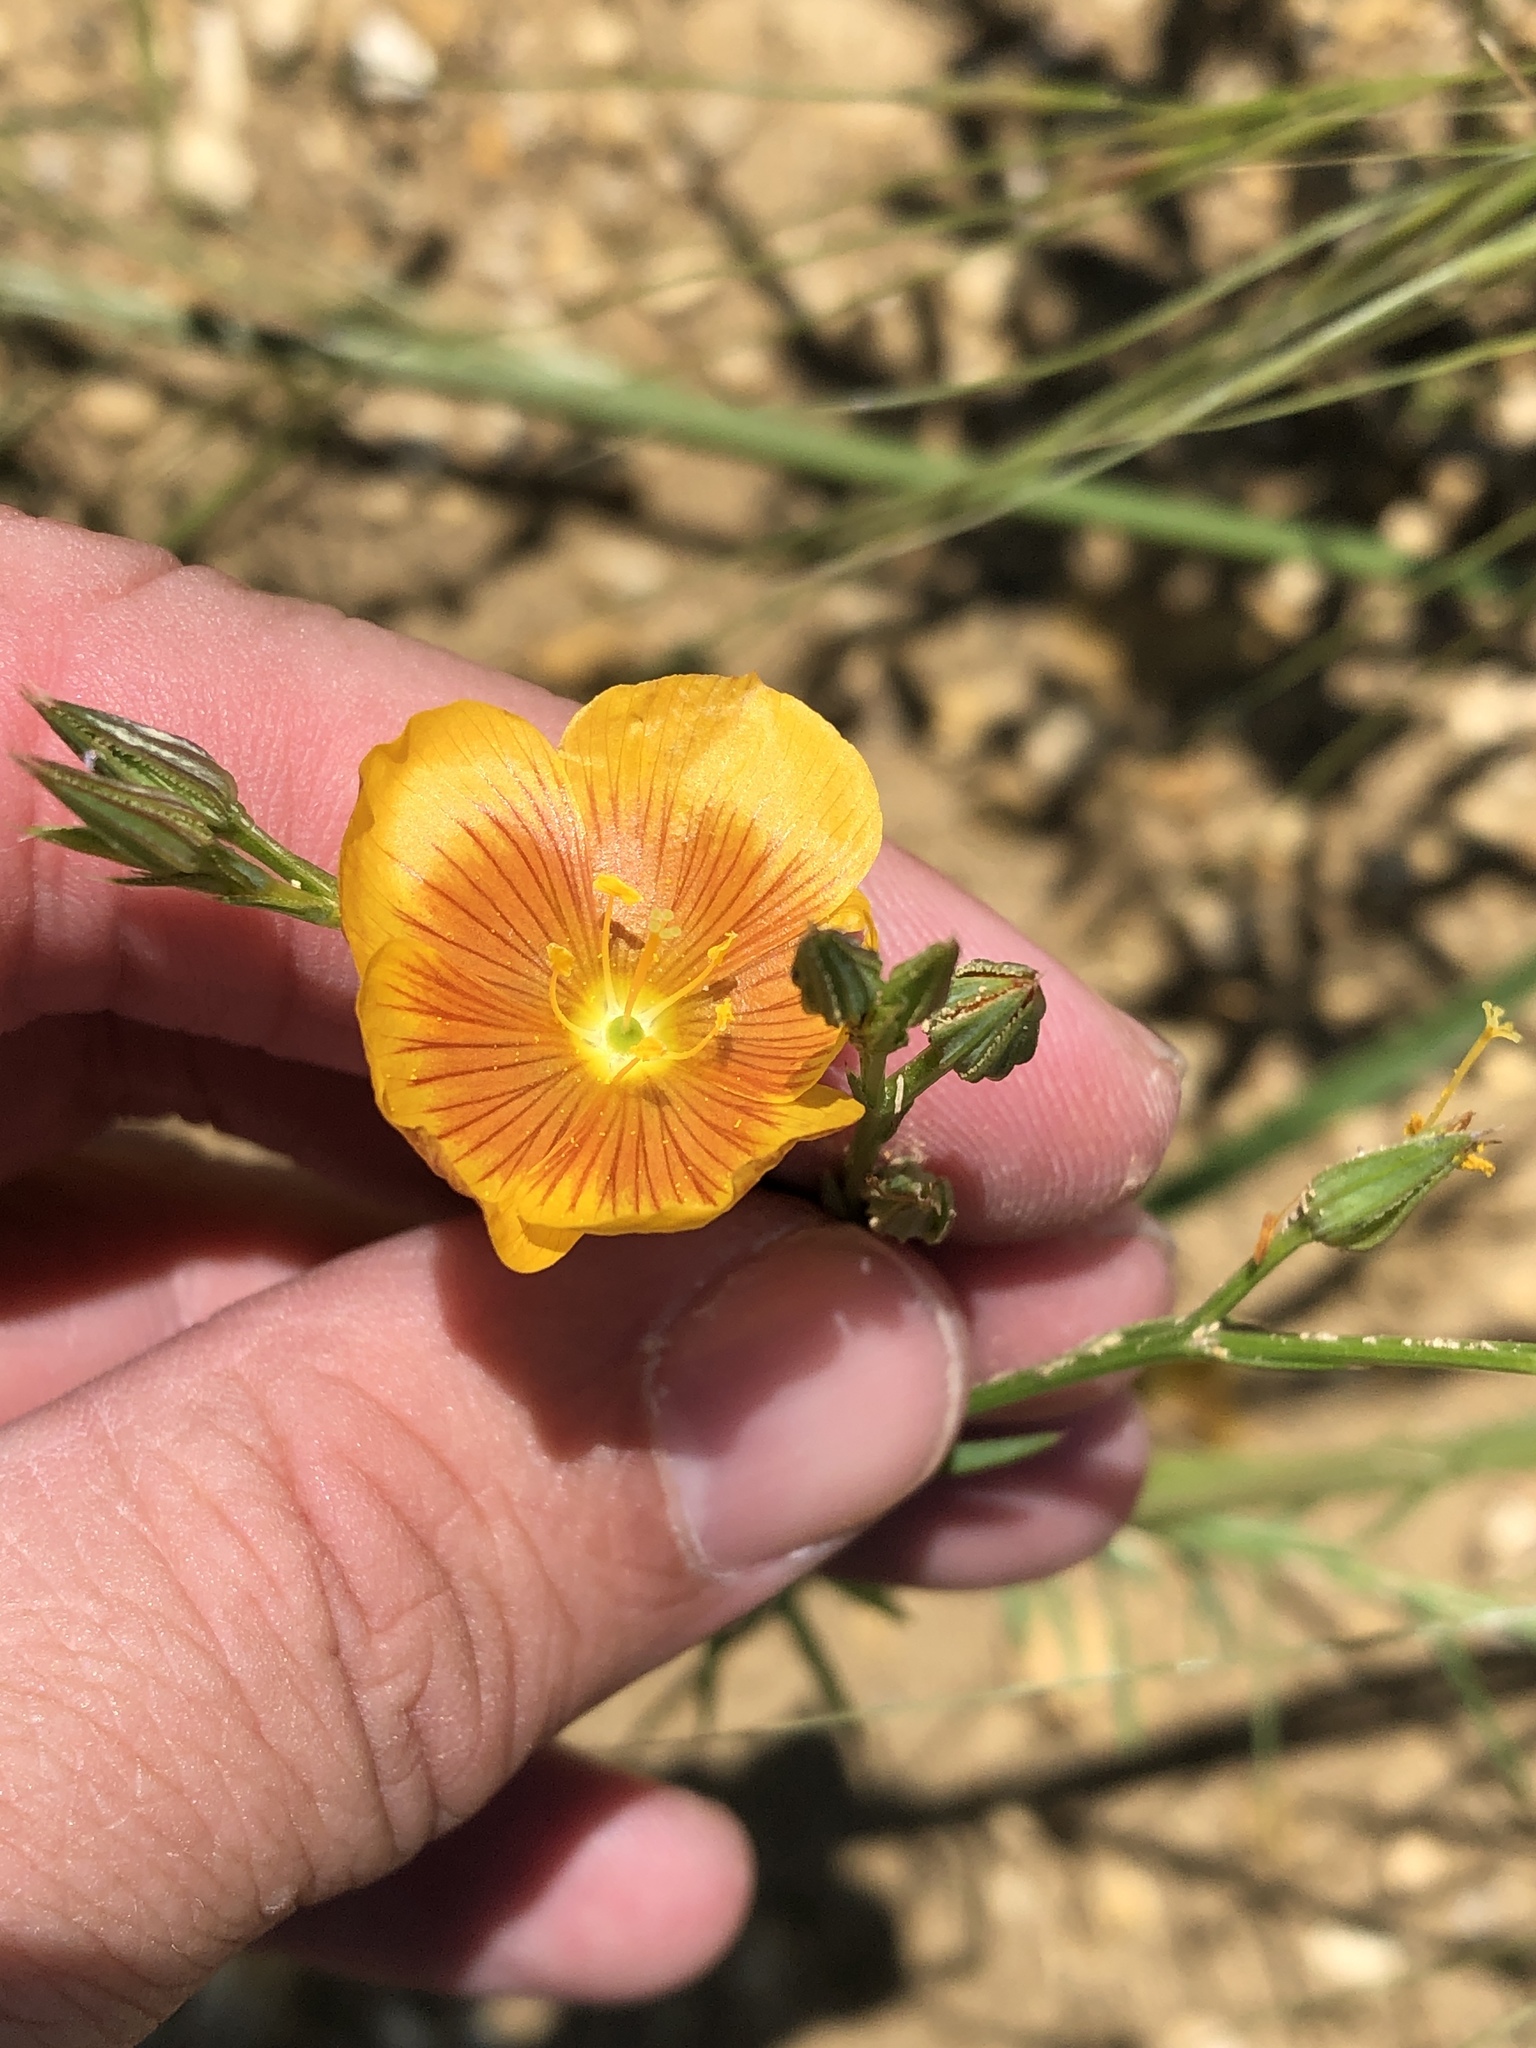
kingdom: Plantae
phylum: Tracheophyta
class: Magnoliopsida
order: Malpighiales
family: Linaceae
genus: Linum
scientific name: Linum rigidum
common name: Stiff-stem flax
